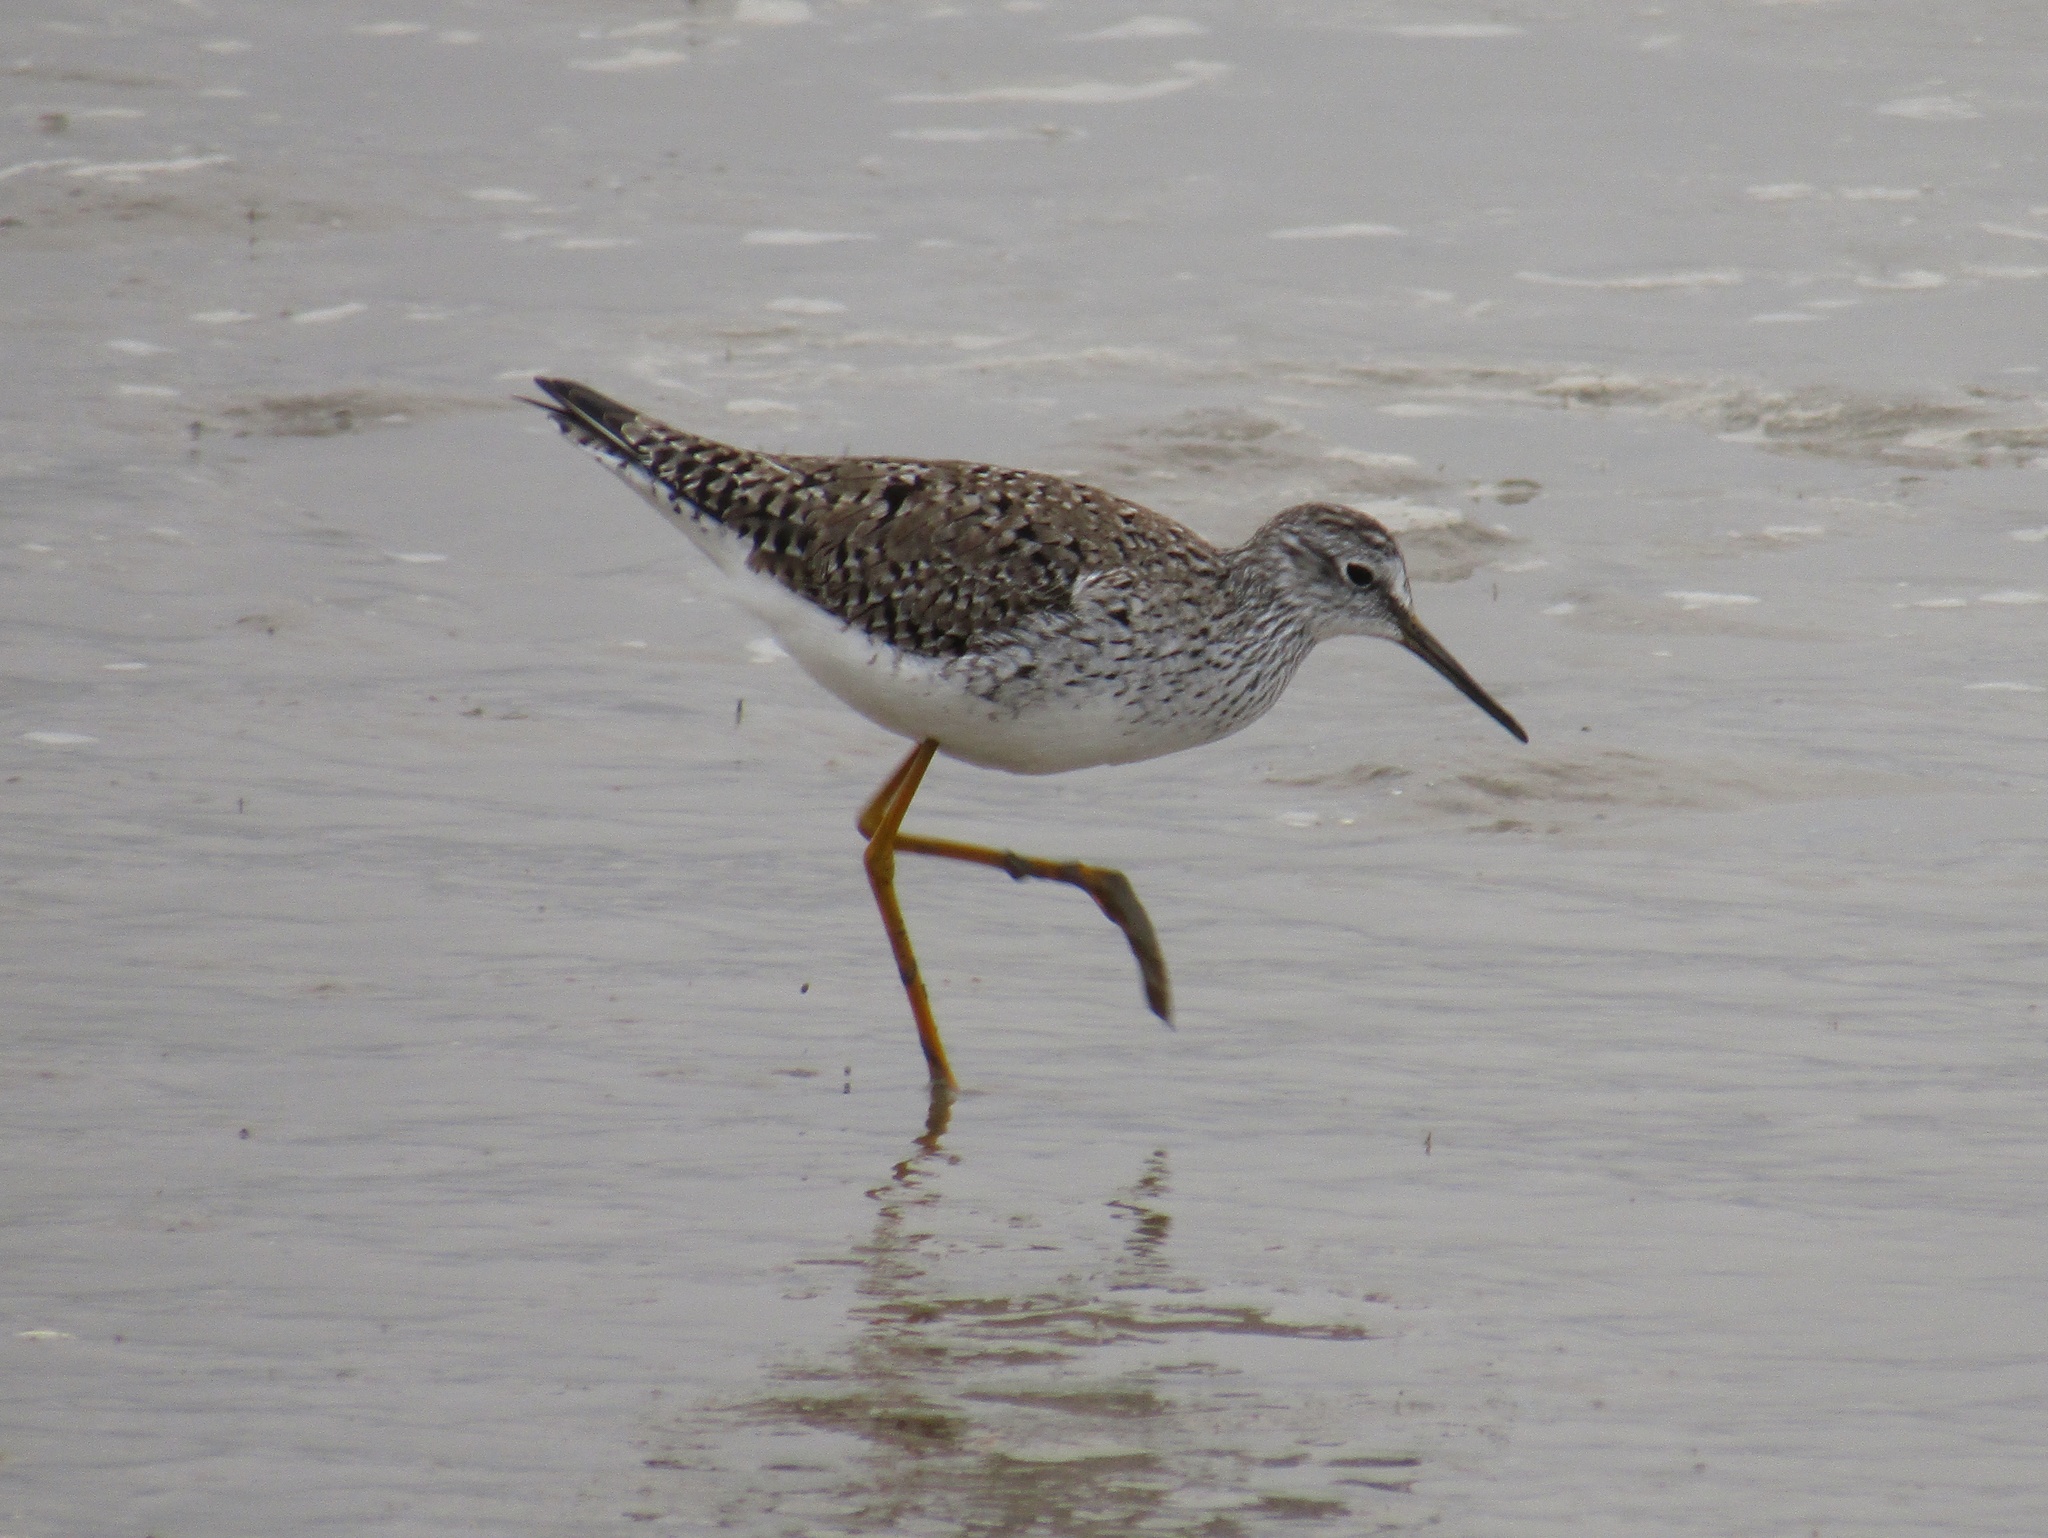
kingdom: Animalia
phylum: Chordata
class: Aves
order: Charadriiformes
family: Scolopacidae
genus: Tringa
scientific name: Tringa melanoleuca
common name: Greater yellowlegs
